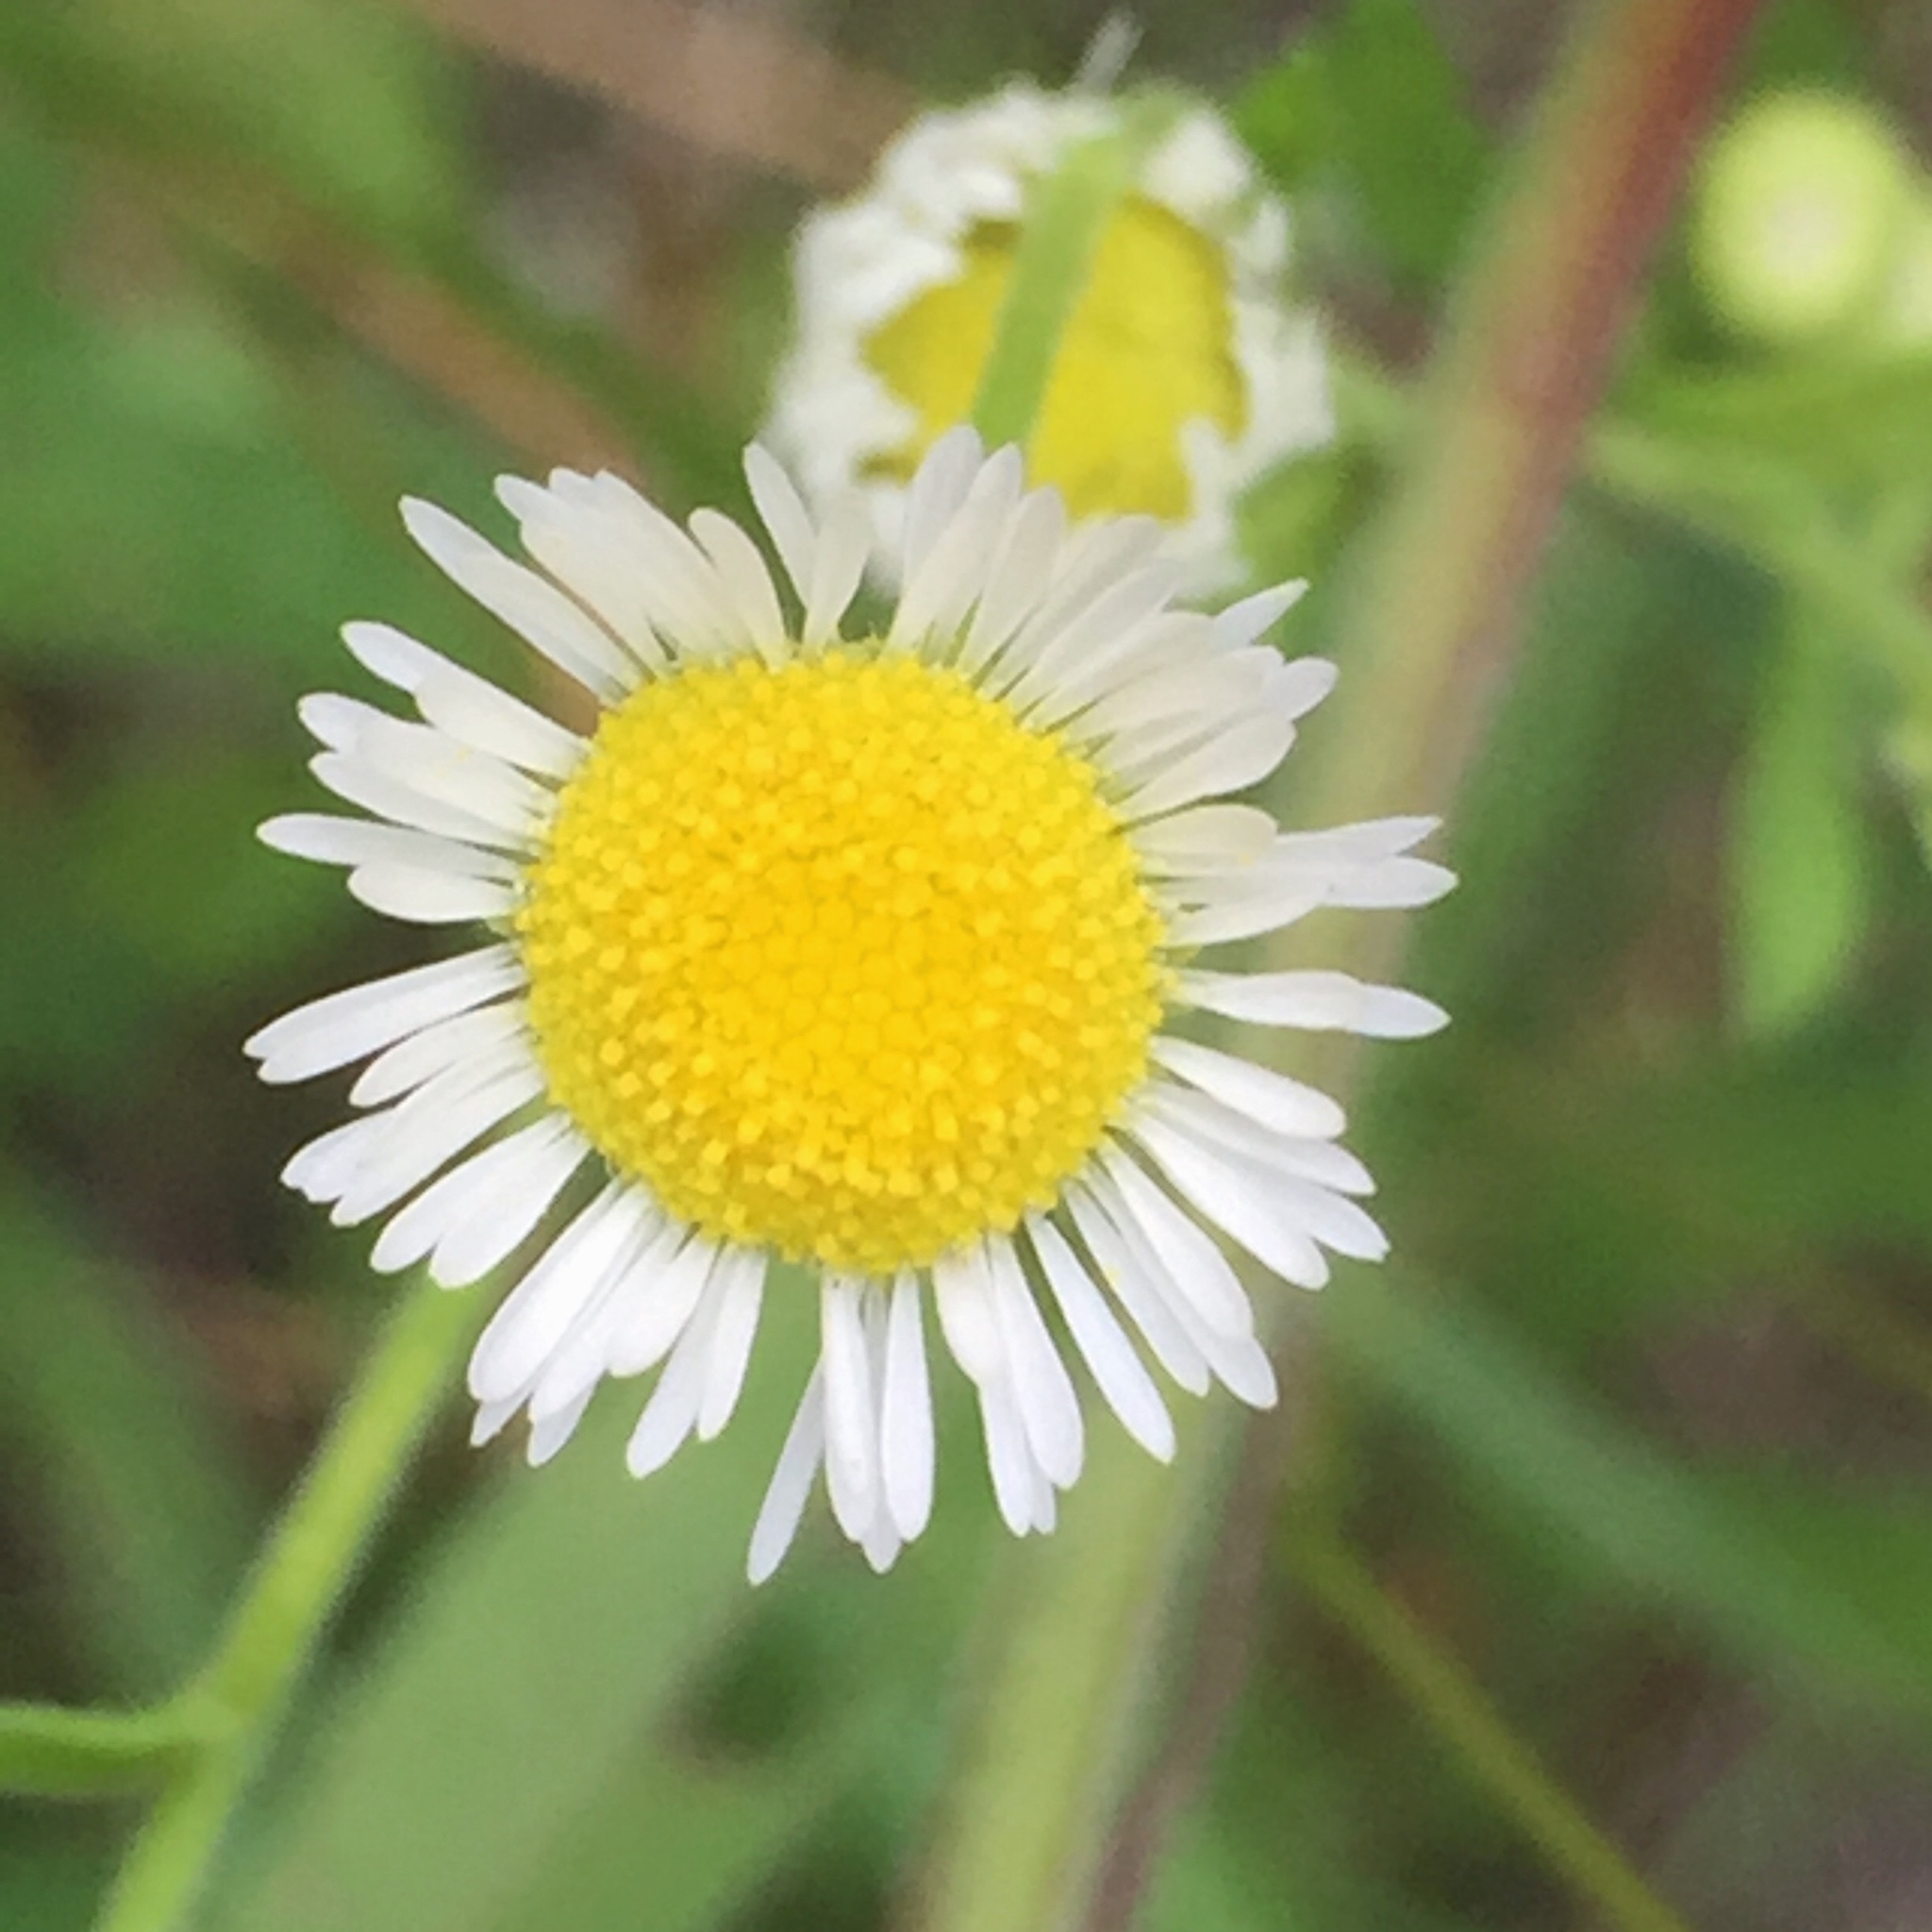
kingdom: Plantae
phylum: Tracheophyta
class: Magnoliopsida
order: Asterales
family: Asteraceae
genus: Erigeron
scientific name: Erigeron strigosus
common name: Common eastern fleabane
